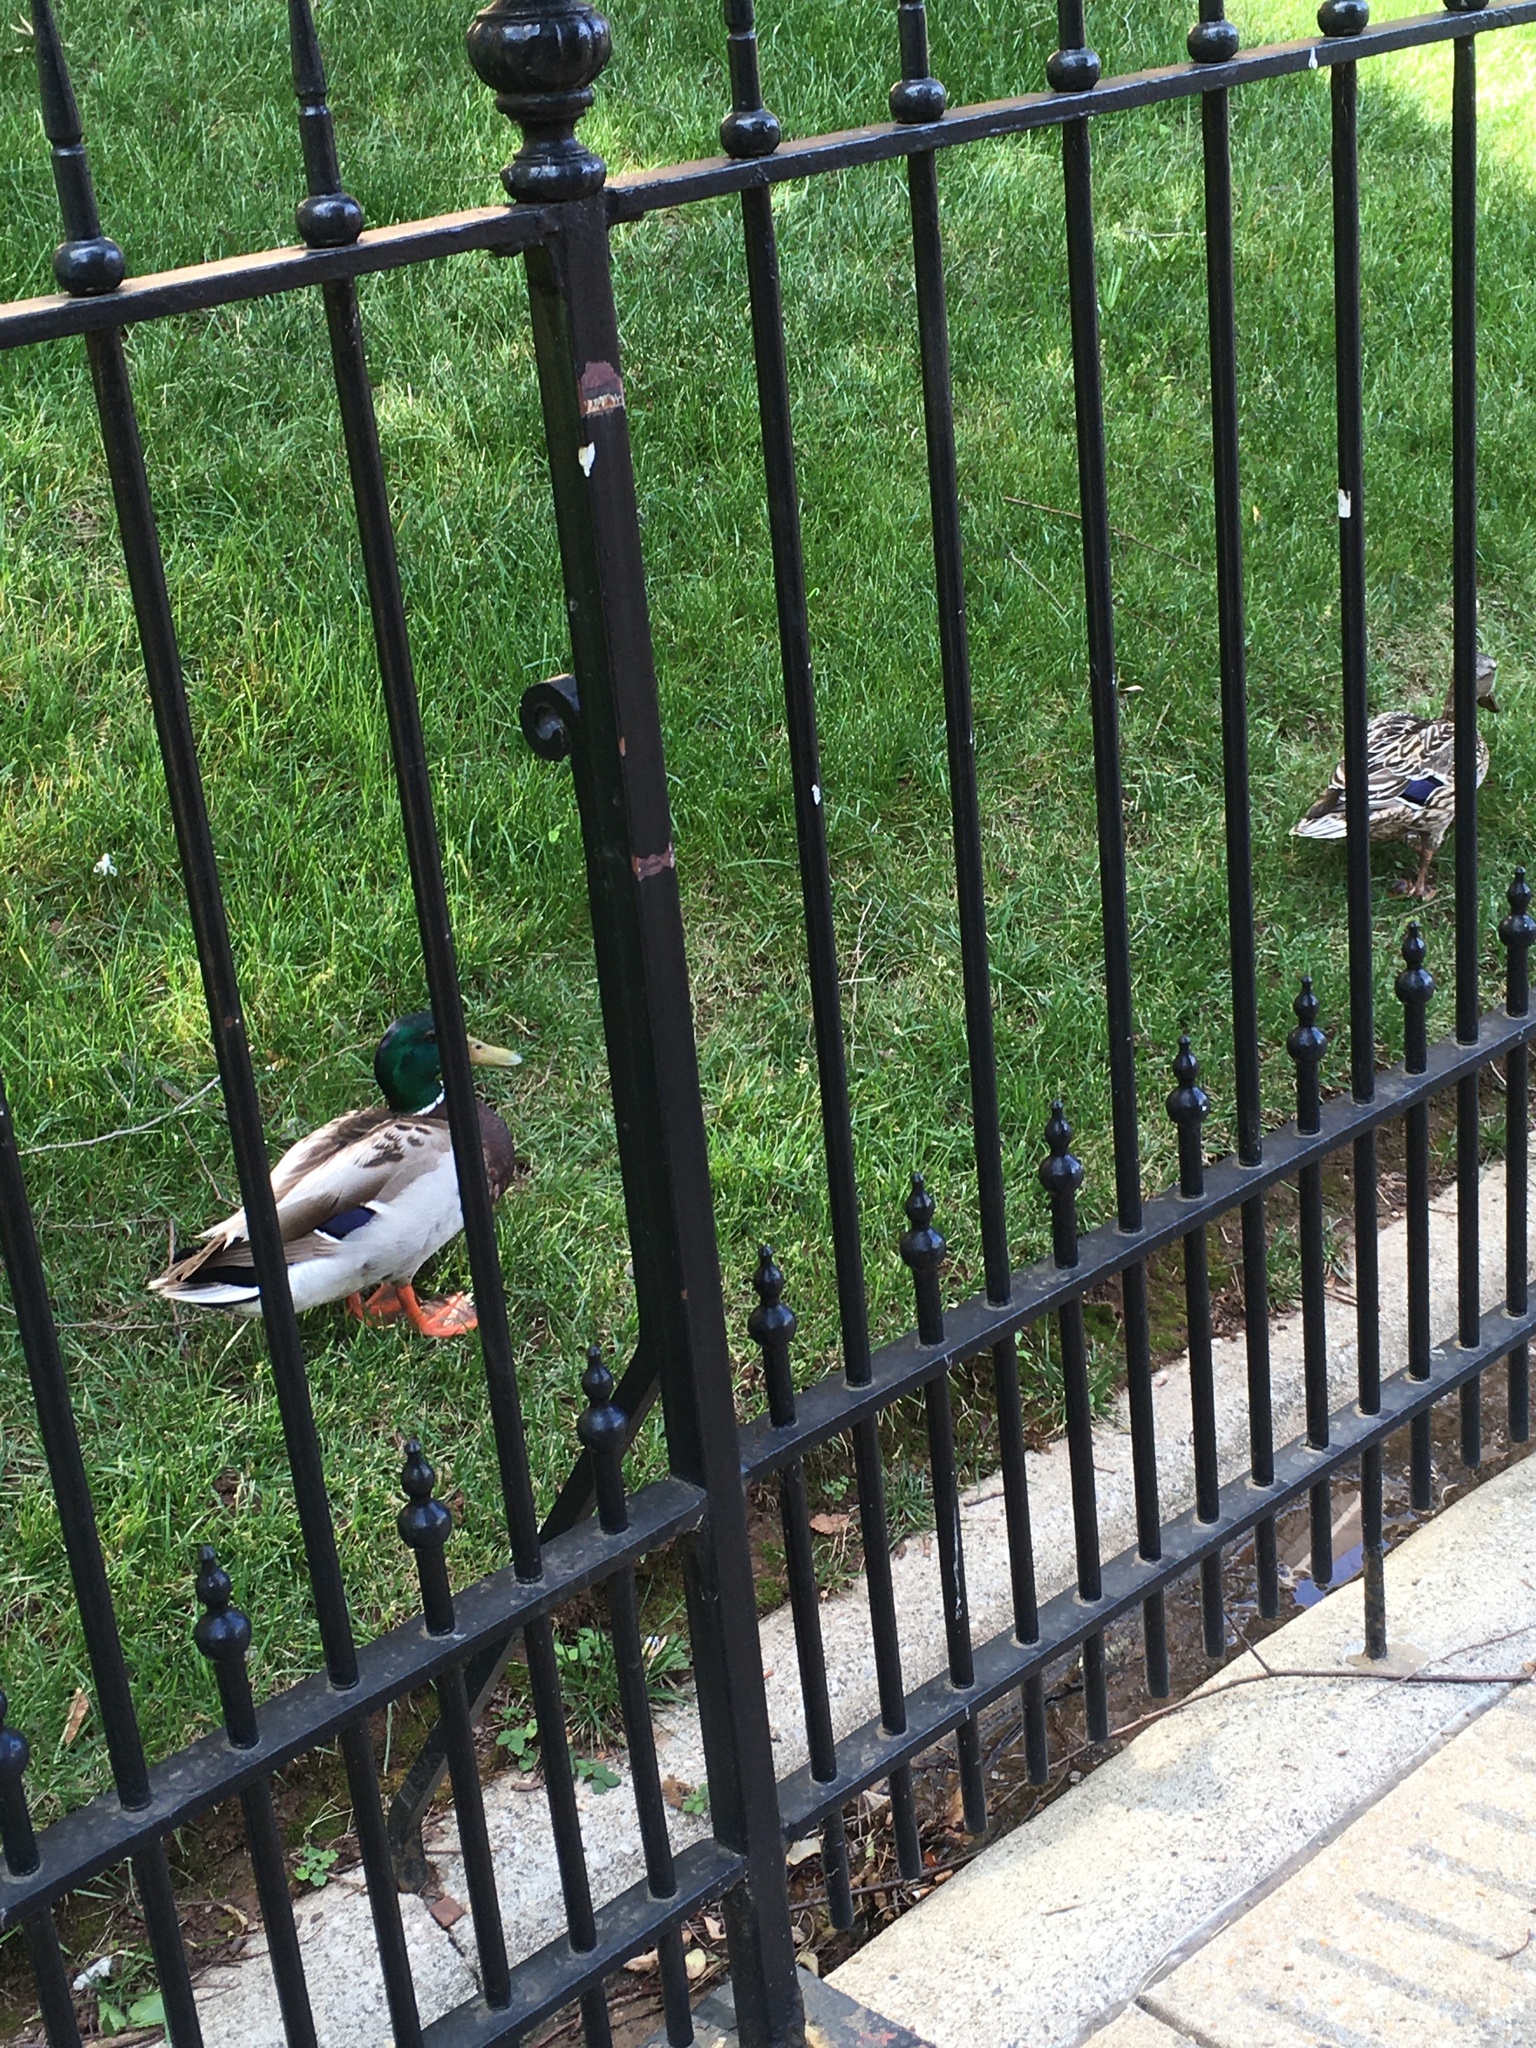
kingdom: Animalia
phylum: Chordata
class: Aves
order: Anseriformes
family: Anatidae
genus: Anas
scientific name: Anas platyrhynchos
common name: Mallard
